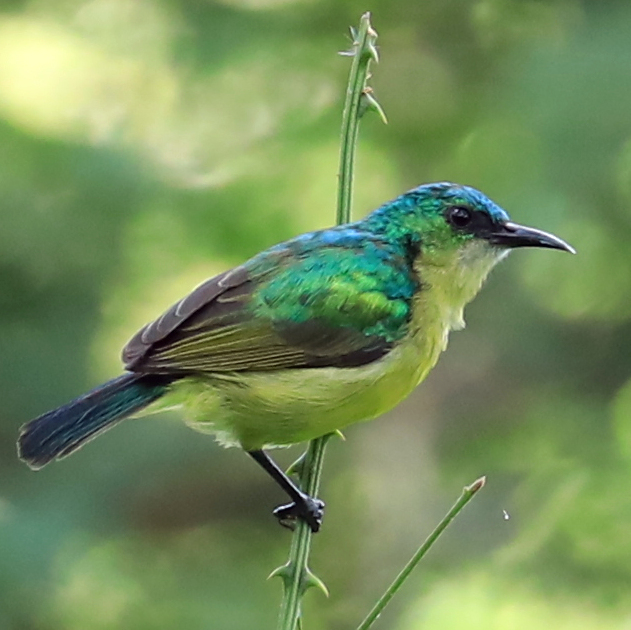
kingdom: Animalia
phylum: Chordata
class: Aves
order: Passeriformes
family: Nectariniidae
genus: Hedydipna
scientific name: Hedydipna collaris
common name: Collared sunbird
